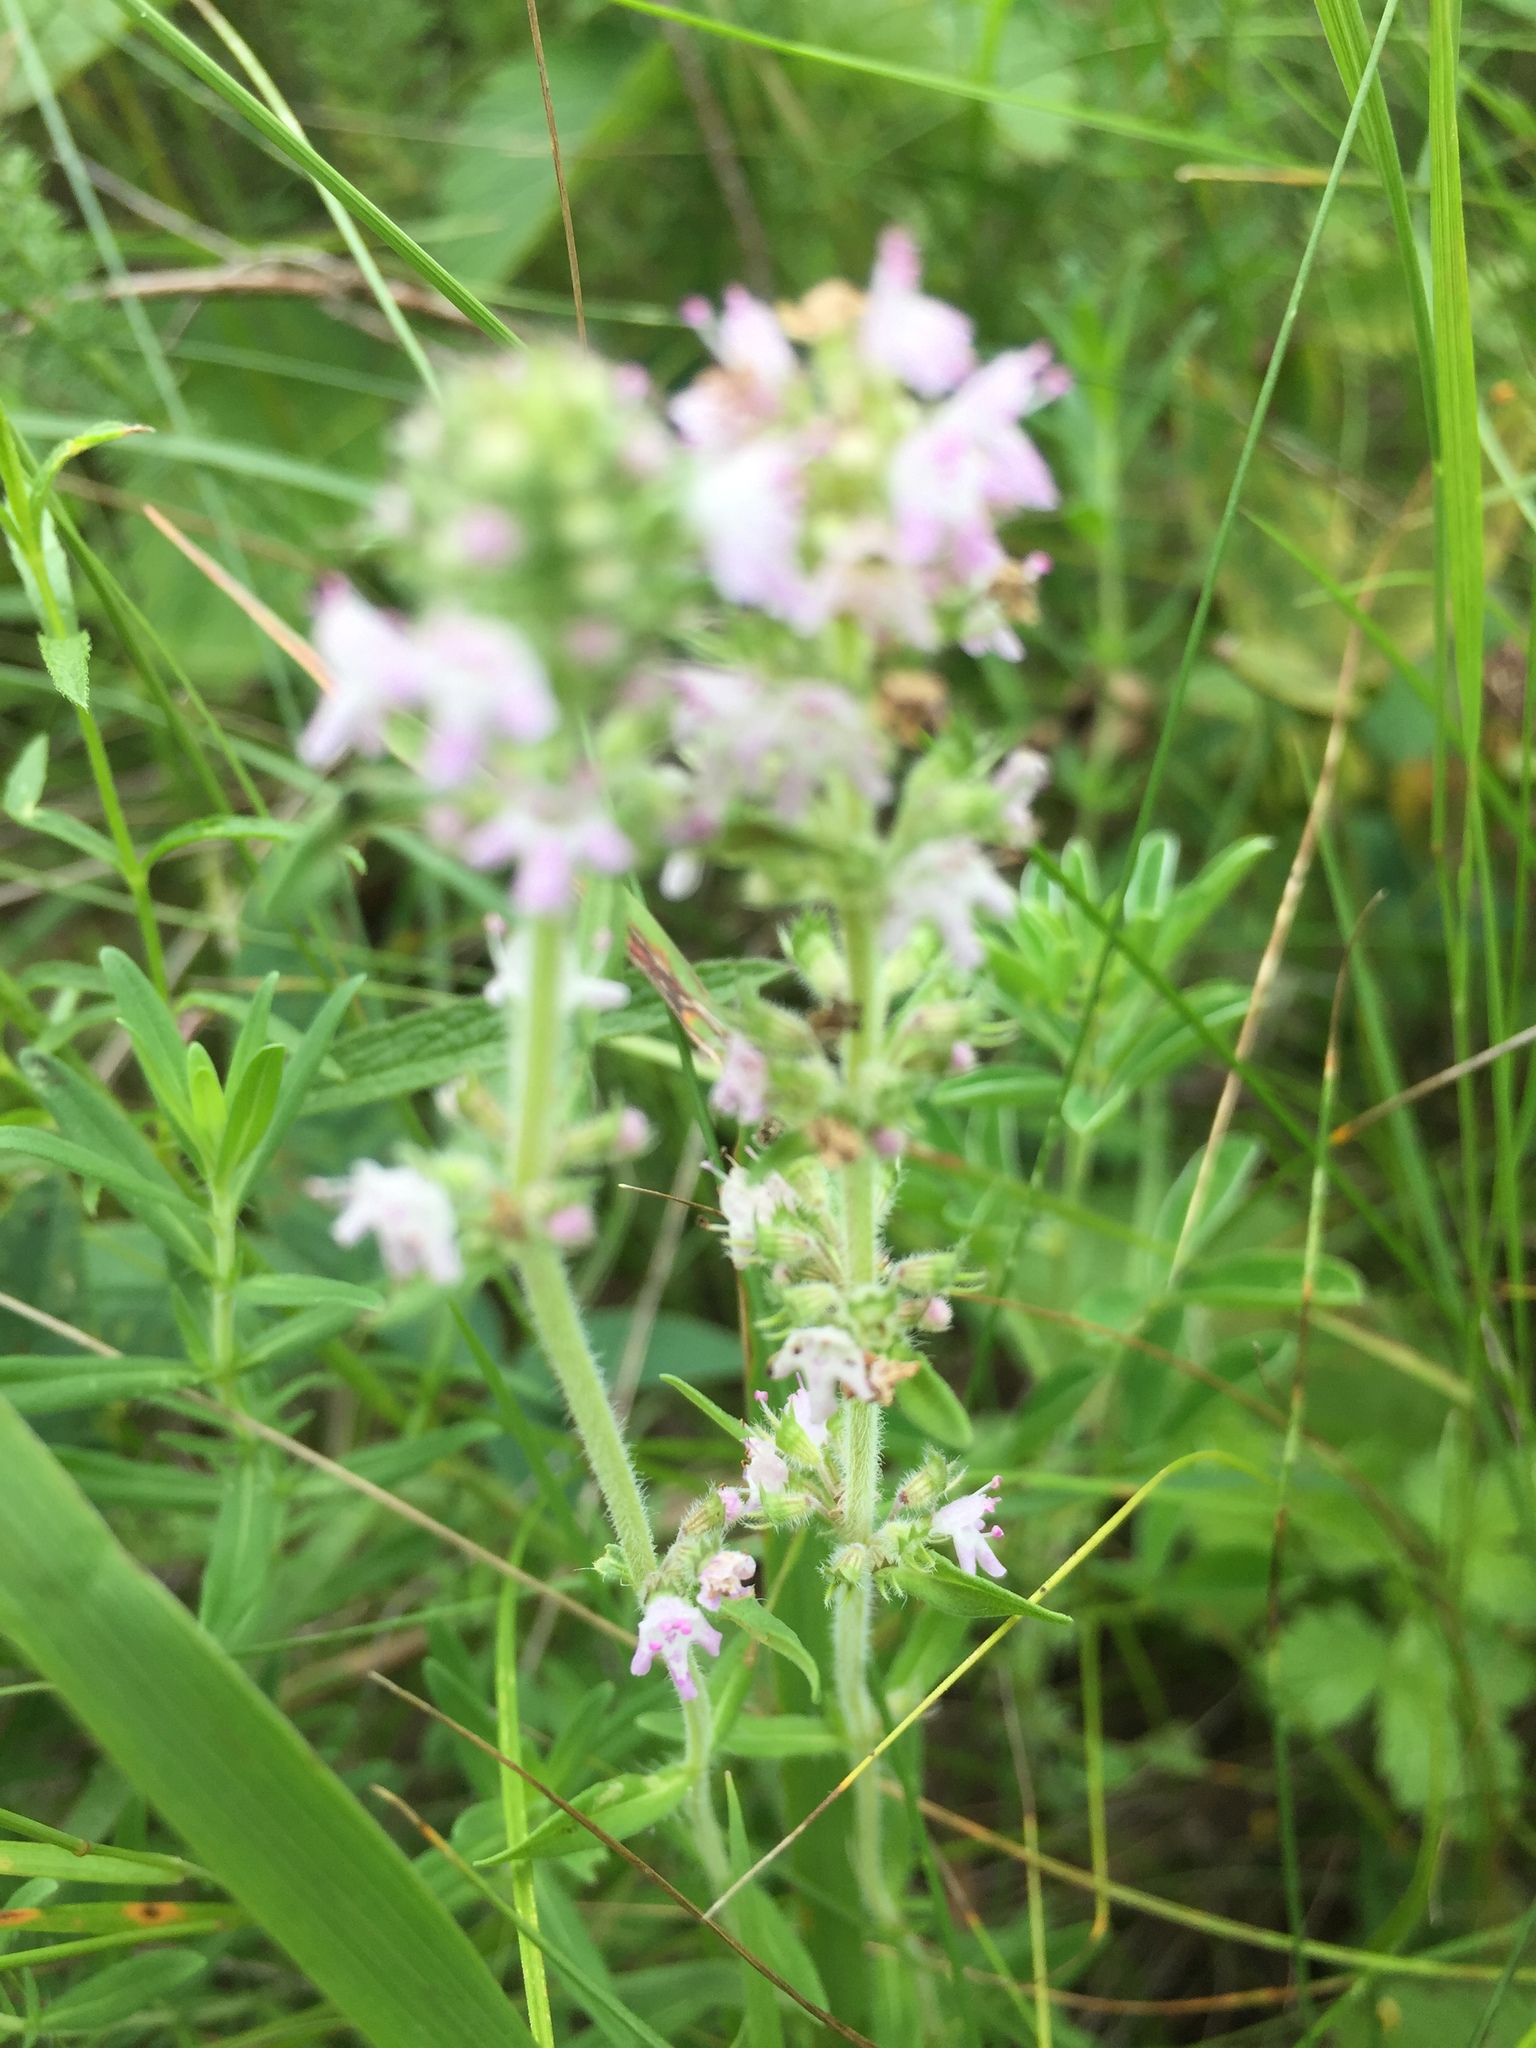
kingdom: Plantae
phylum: Tracheophyta
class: Magnoliopsida
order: Lamiales
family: Lamiaceae
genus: Thymus
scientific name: Thymus pannonicus
